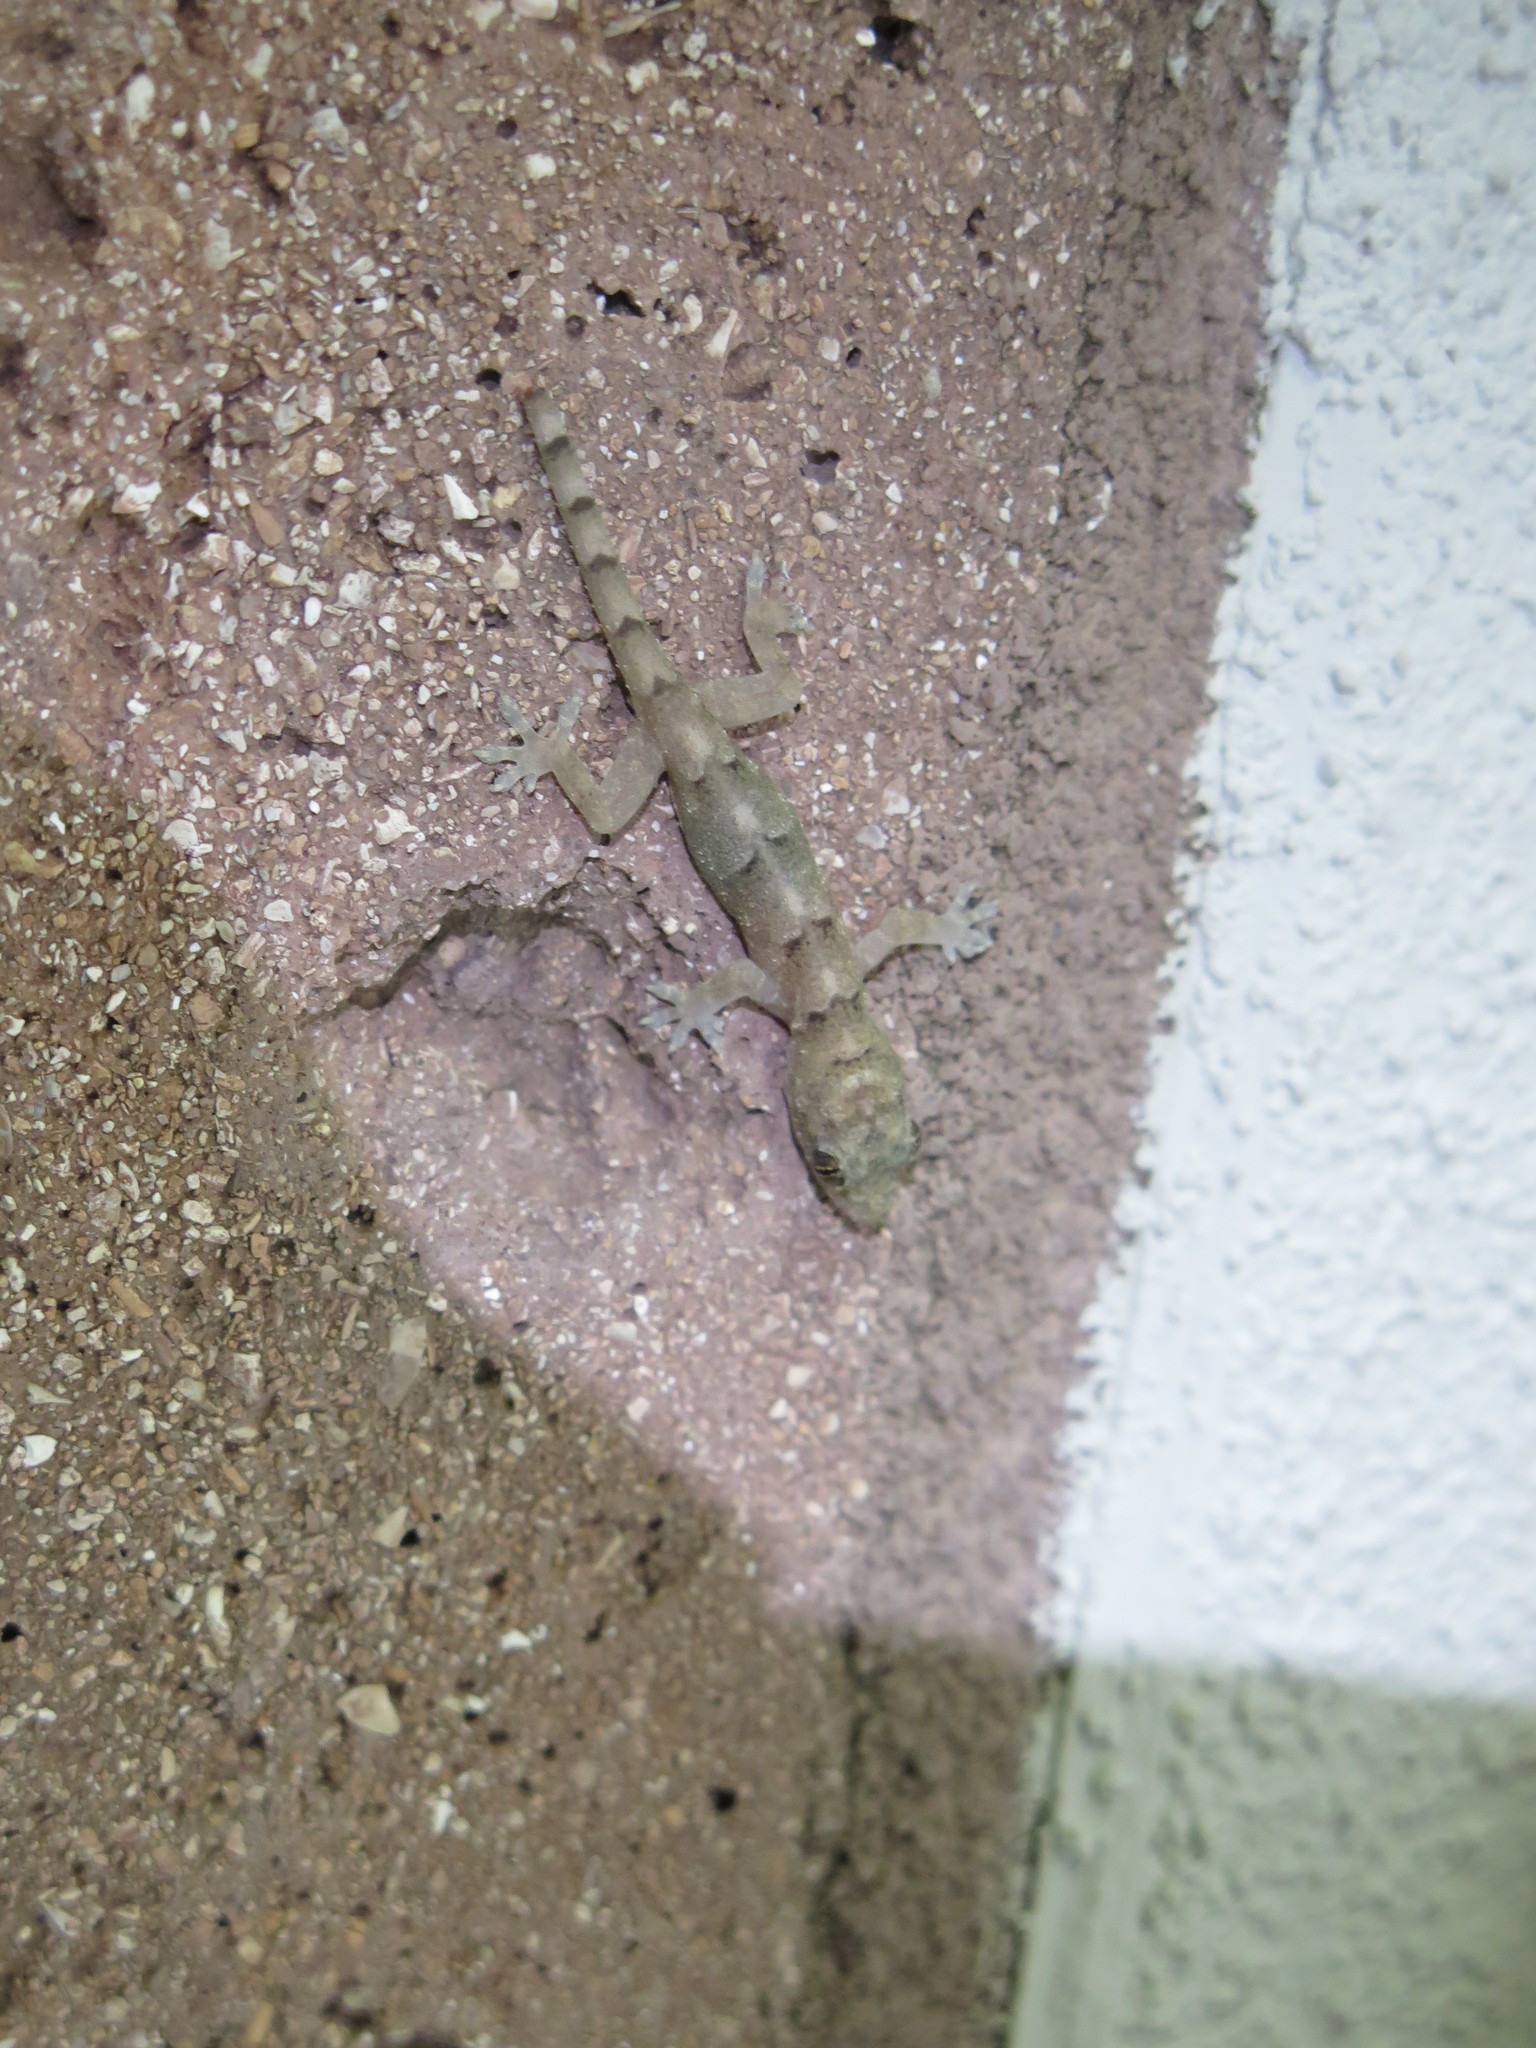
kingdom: Animalia
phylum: Chordata
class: Squamata
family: Gekkonidae
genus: Hemidactylus
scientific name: Hemidactylus mabouia
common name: House gecko
